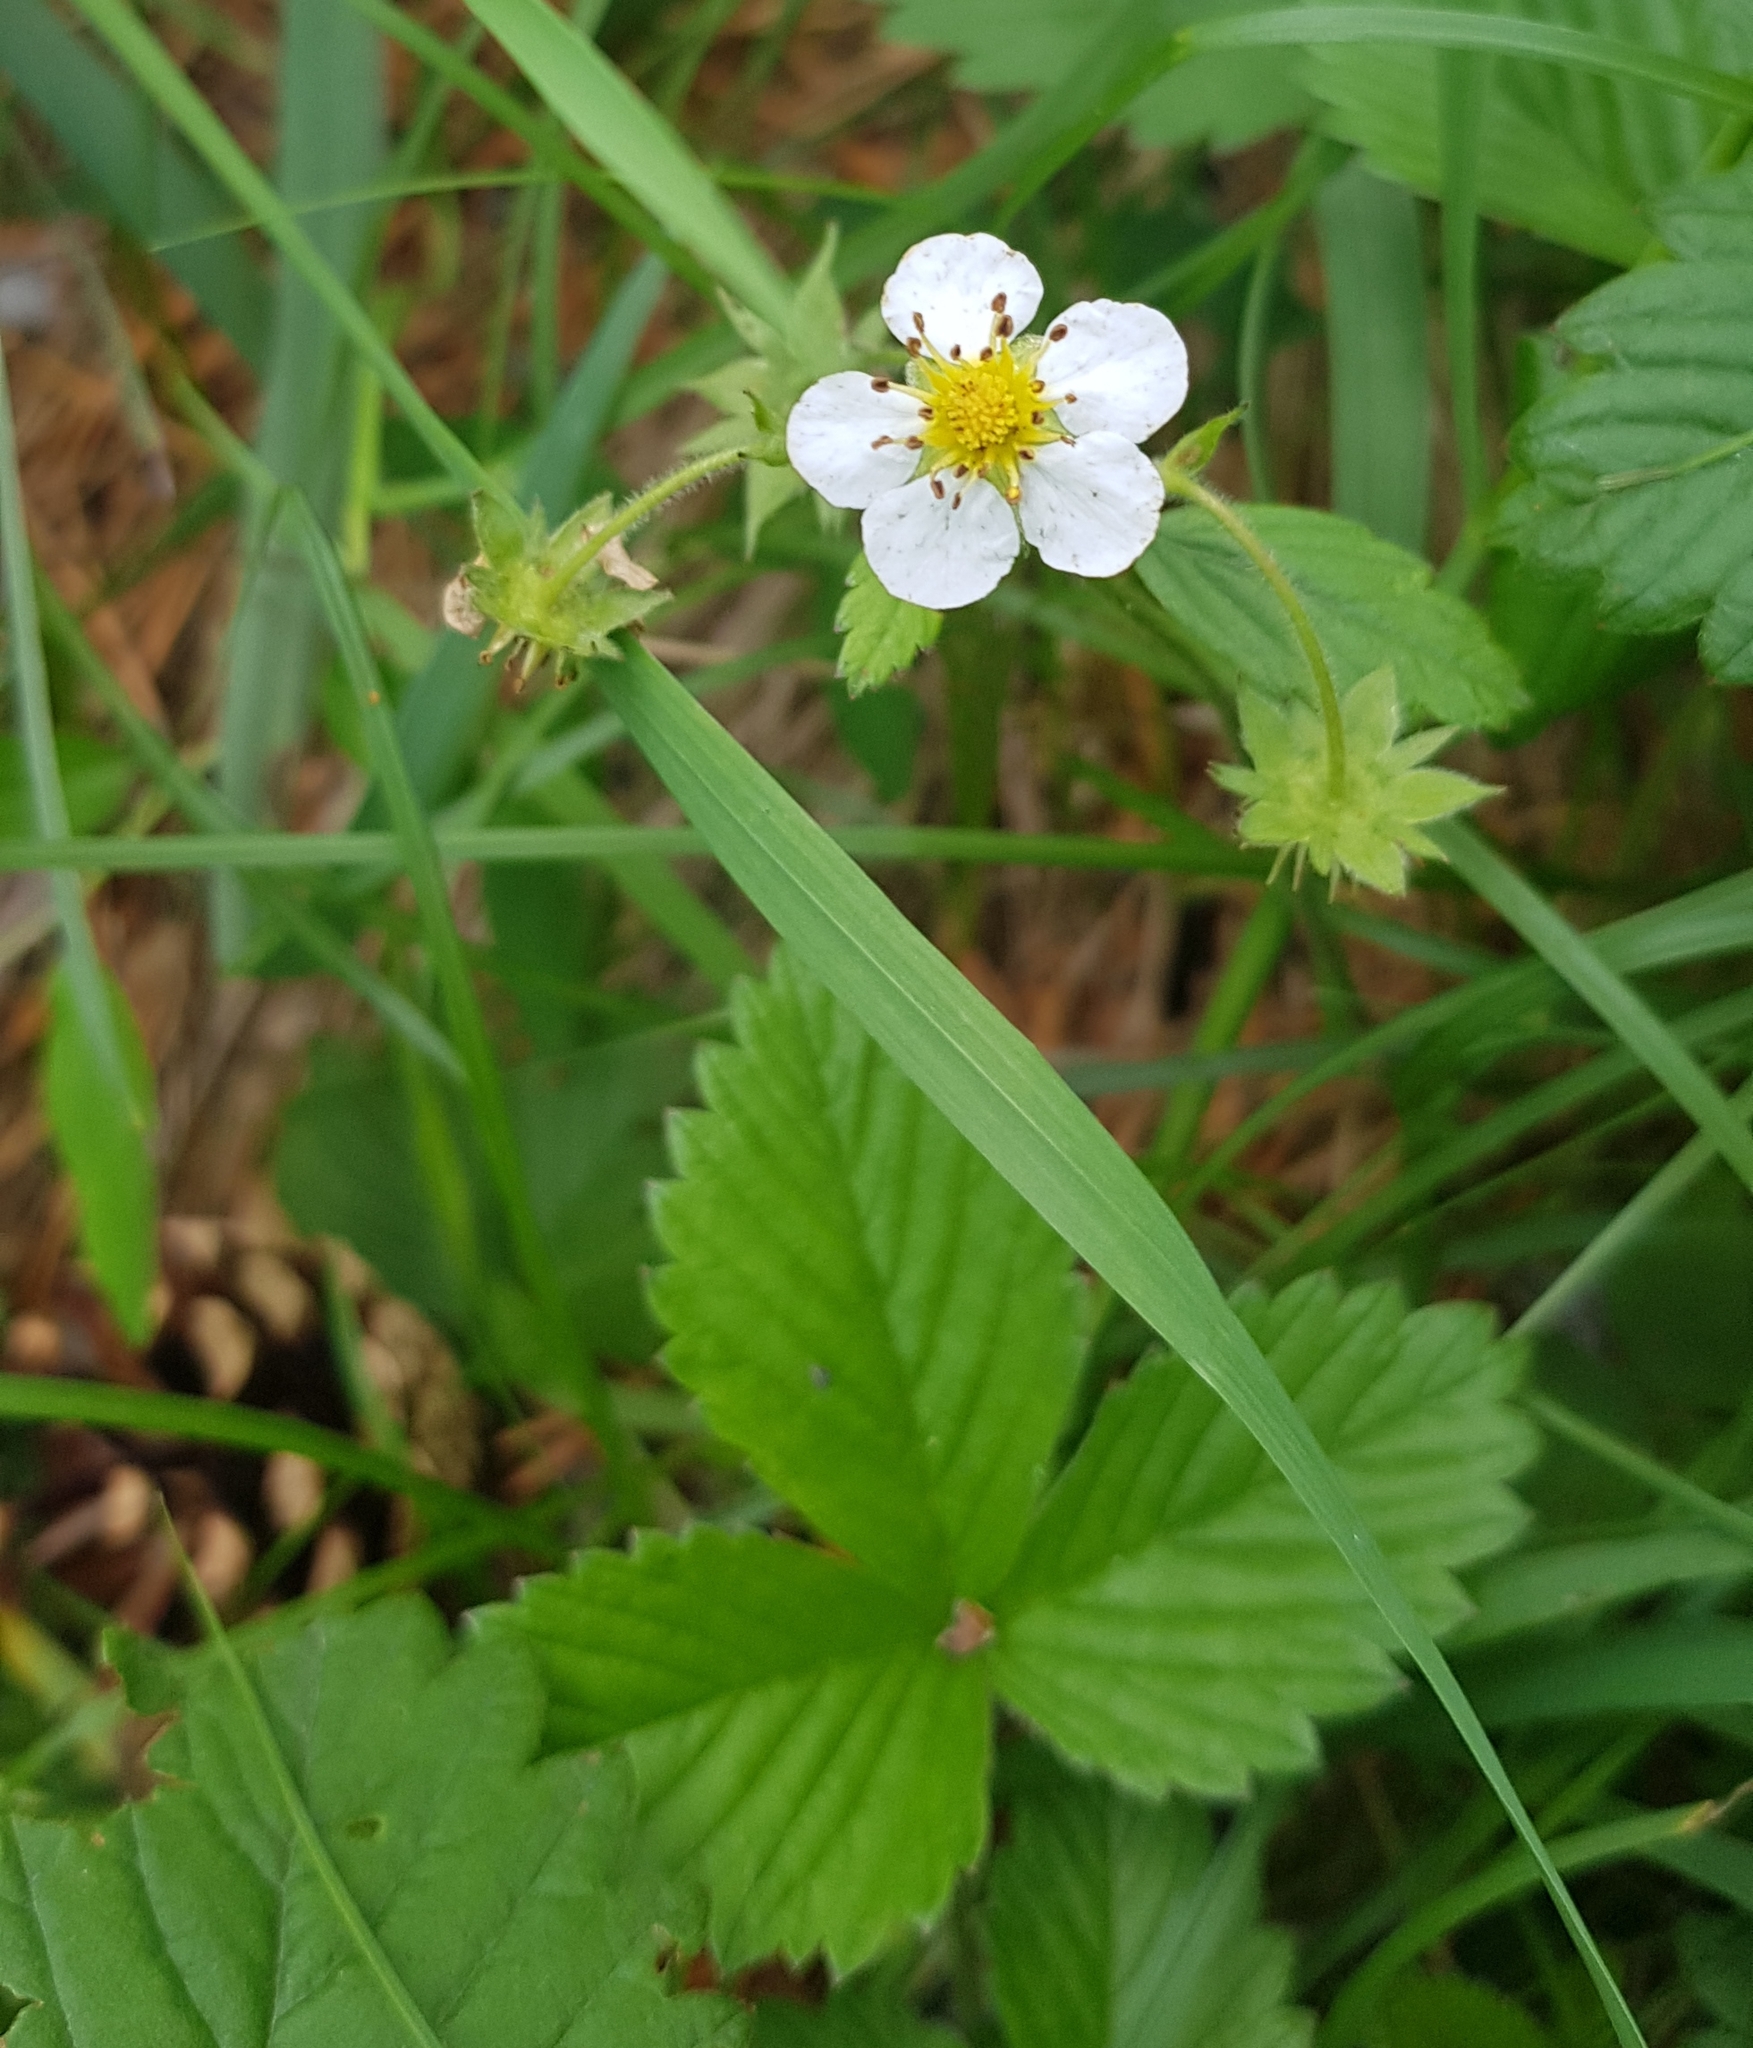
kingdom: Plantae
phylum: Tracheophyta
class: Magnoliopsida
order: Rosales
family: Rosaceae
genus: Fragaria
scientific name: Fragaria orientalis
